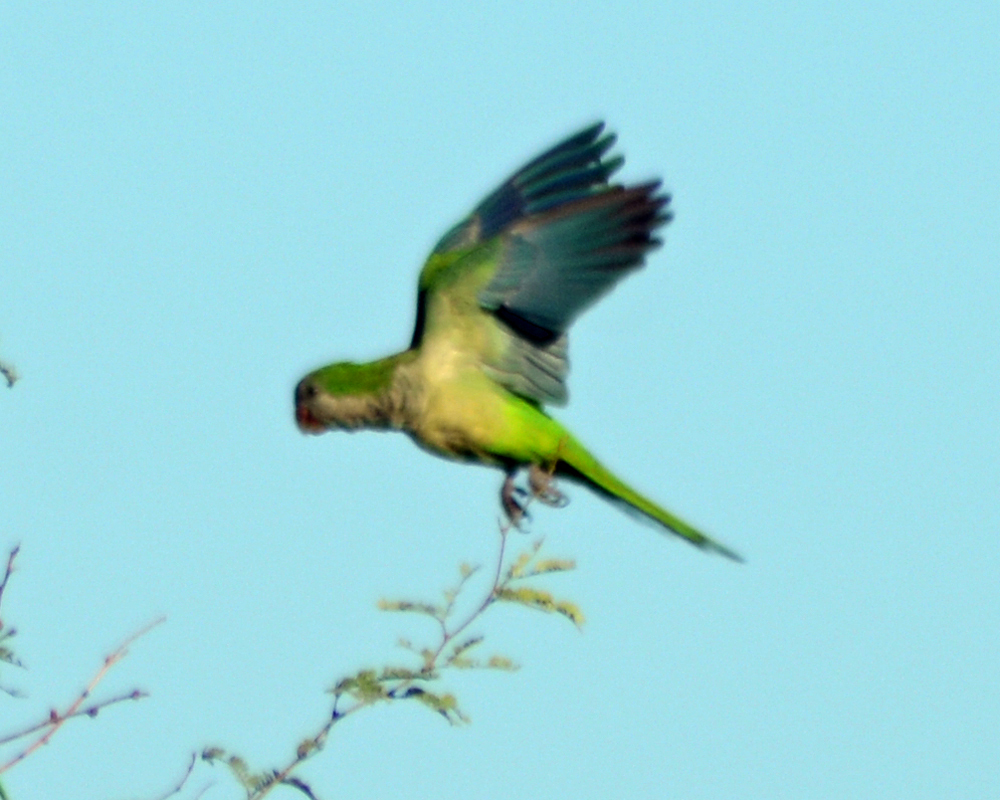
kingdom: Animalia
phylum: Chordata
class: Aves
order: Psittaciformes
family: Psittacidae
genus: Myiopsitta
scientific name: Myiopsitta monachus
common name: Monk parakeet
